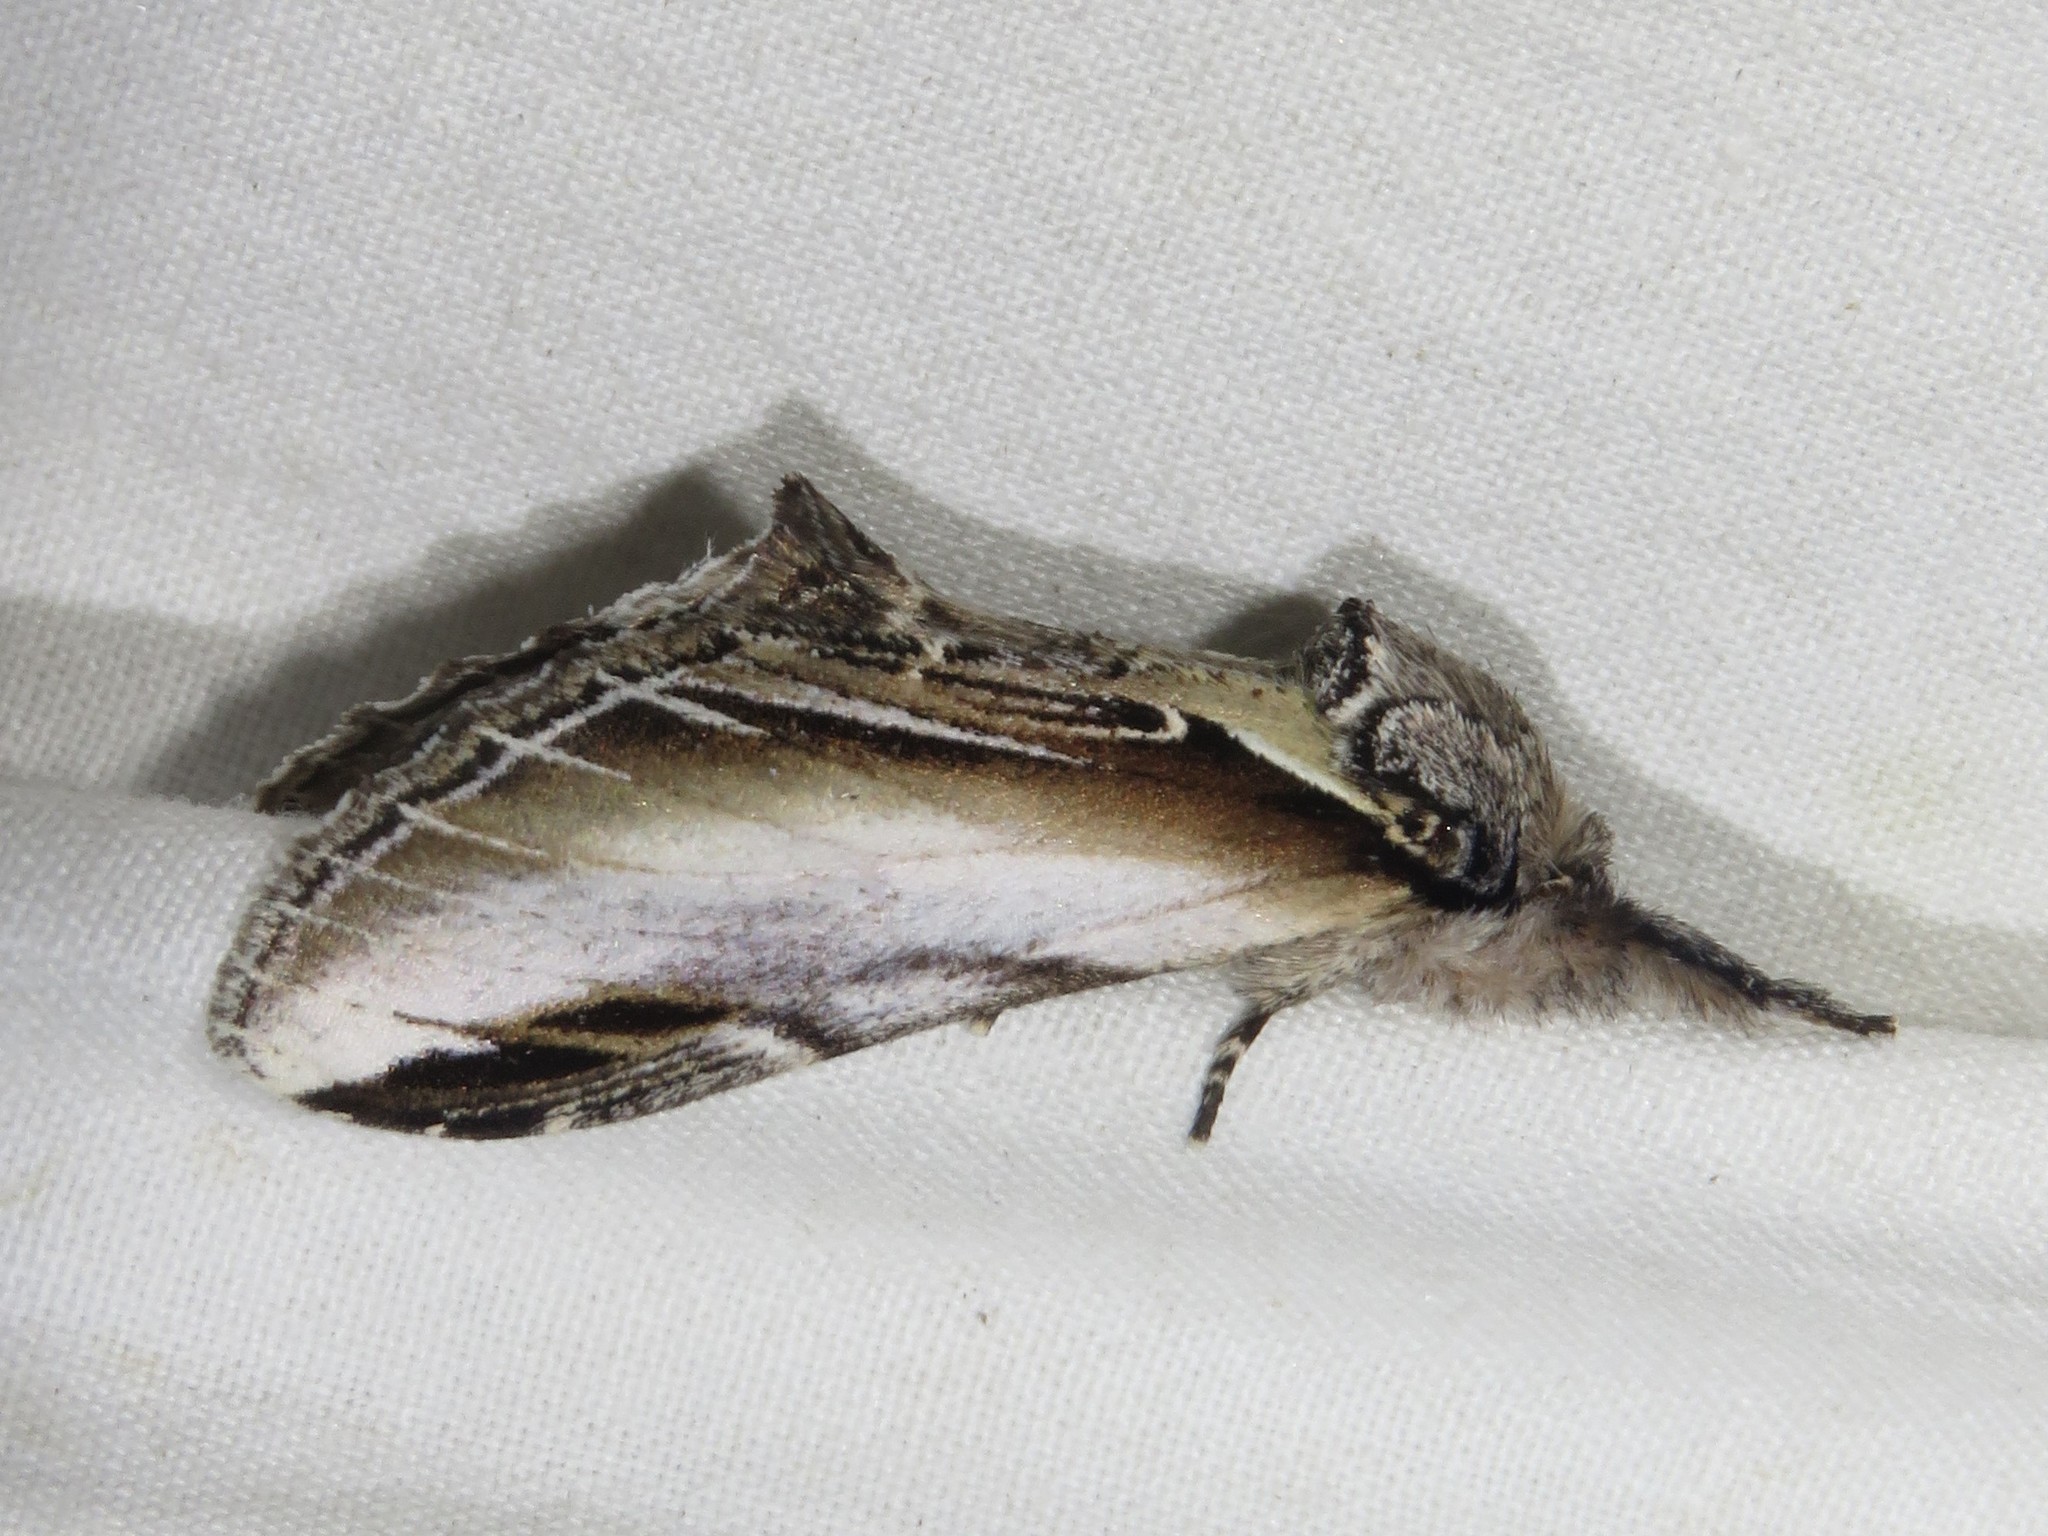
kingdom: Animalia
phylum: Arthropoda
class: Insecta
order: Lepidoptera
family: Notodontidae
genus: Pheosia
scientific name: Pheosia rimosa
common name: Black-rimmed prominent
